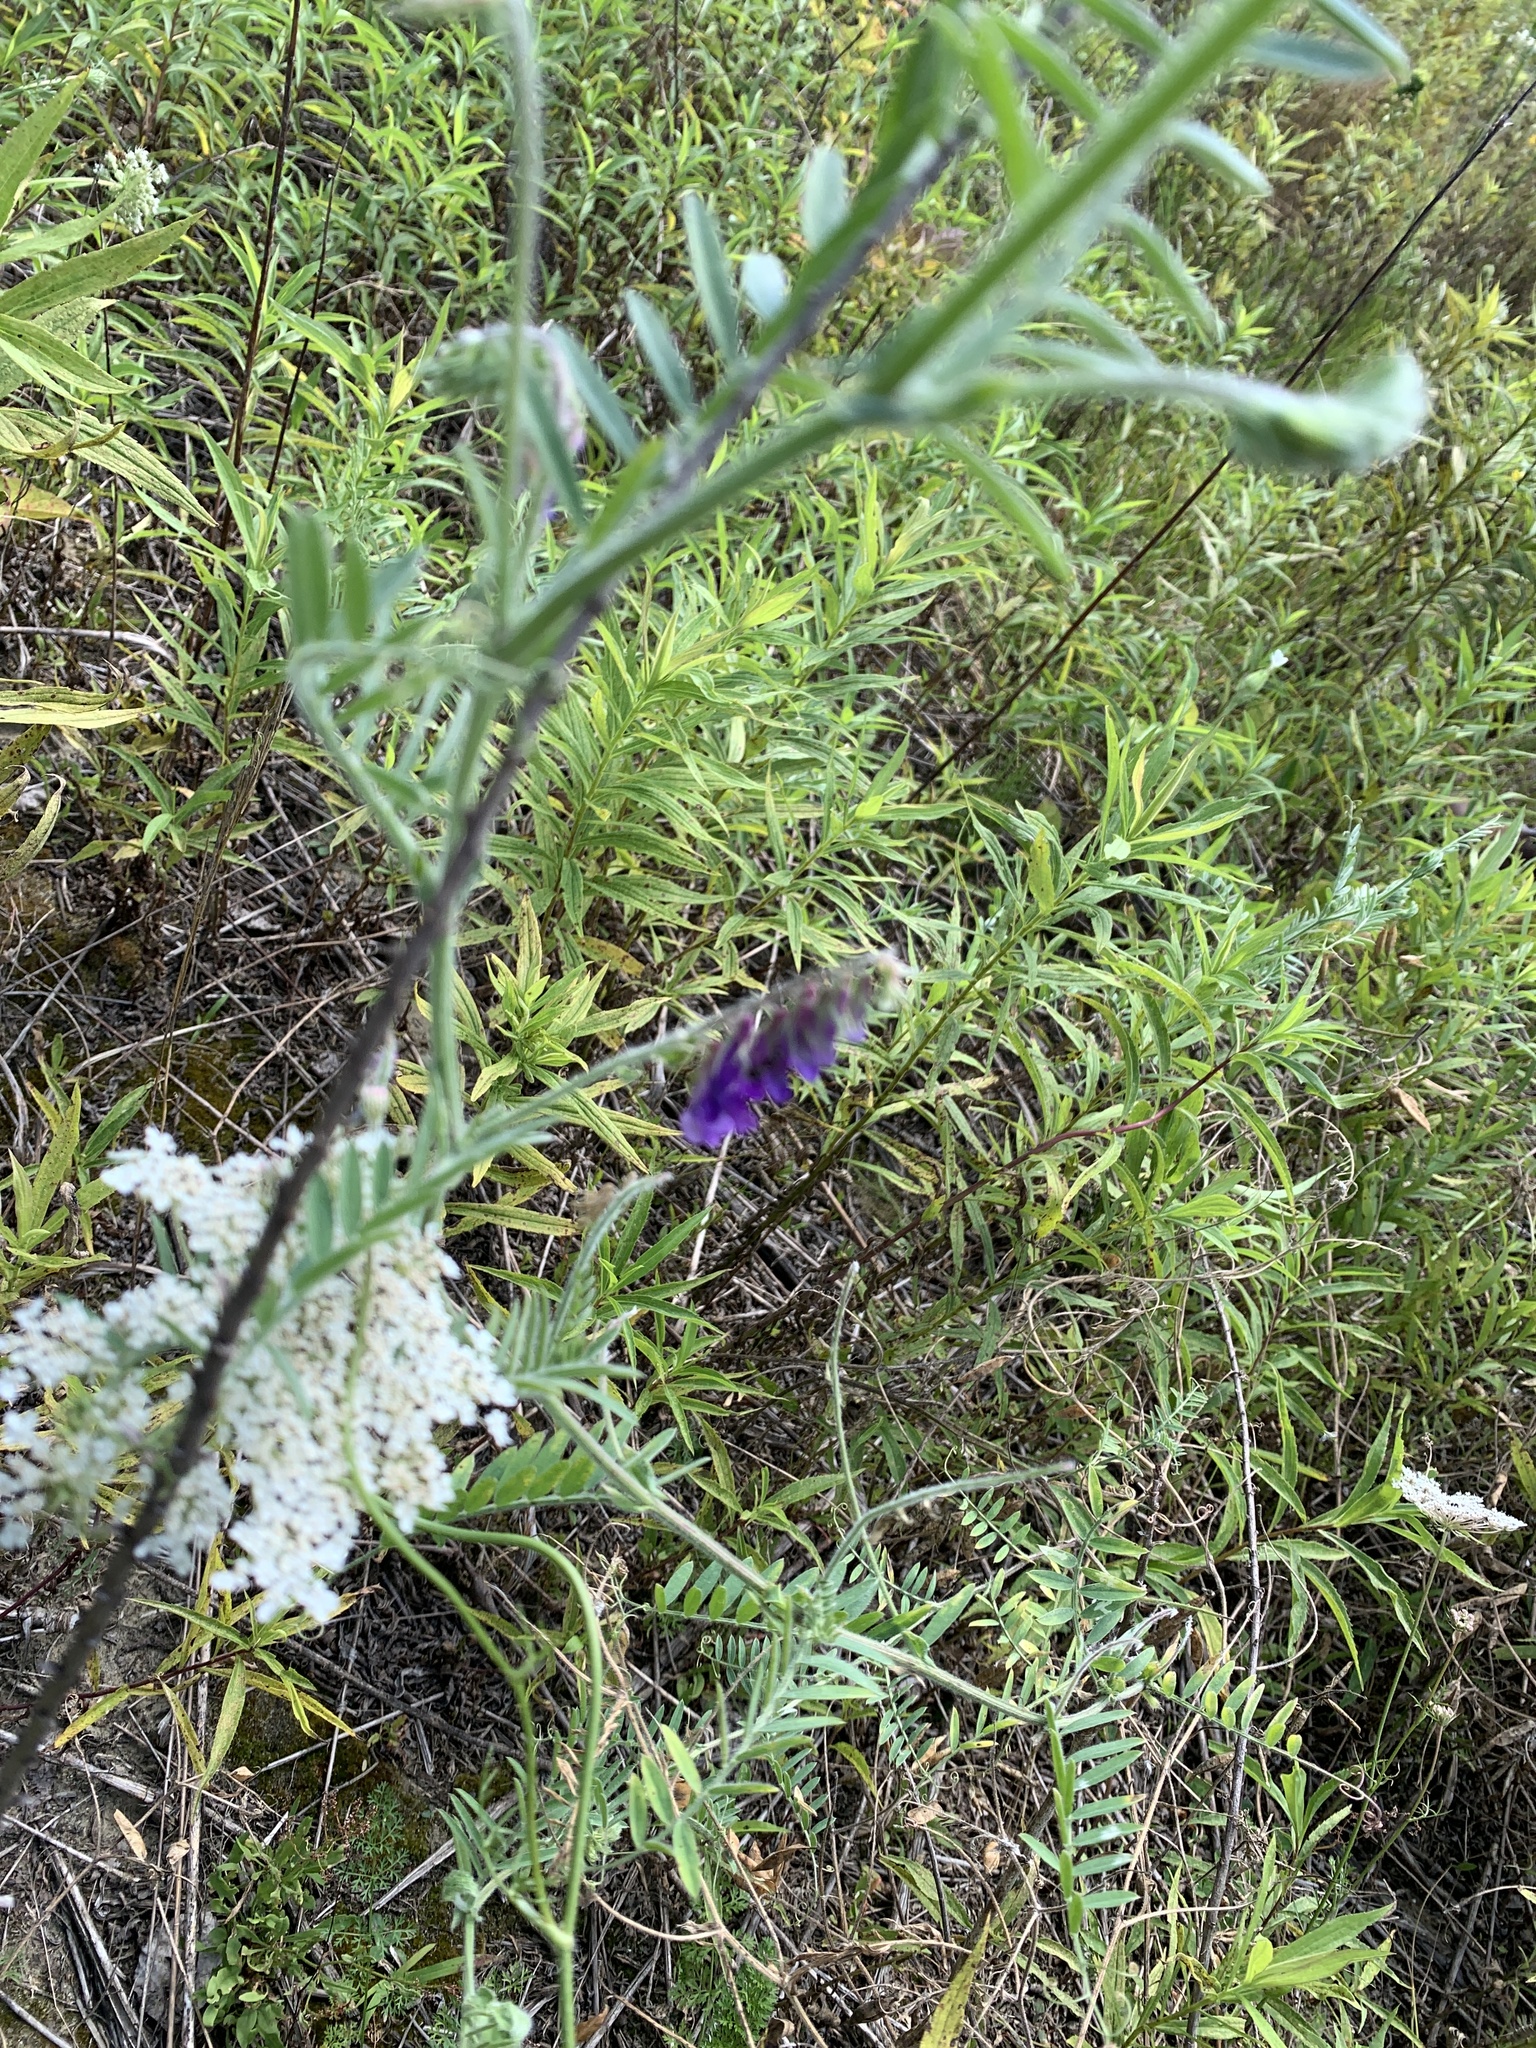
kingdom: Plantae
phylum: Tracheophyta
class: Magnoliopsida
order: Fabales
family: Fabaceae
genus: Vicia
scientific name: Vicia villosa
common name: Fodder vetch
